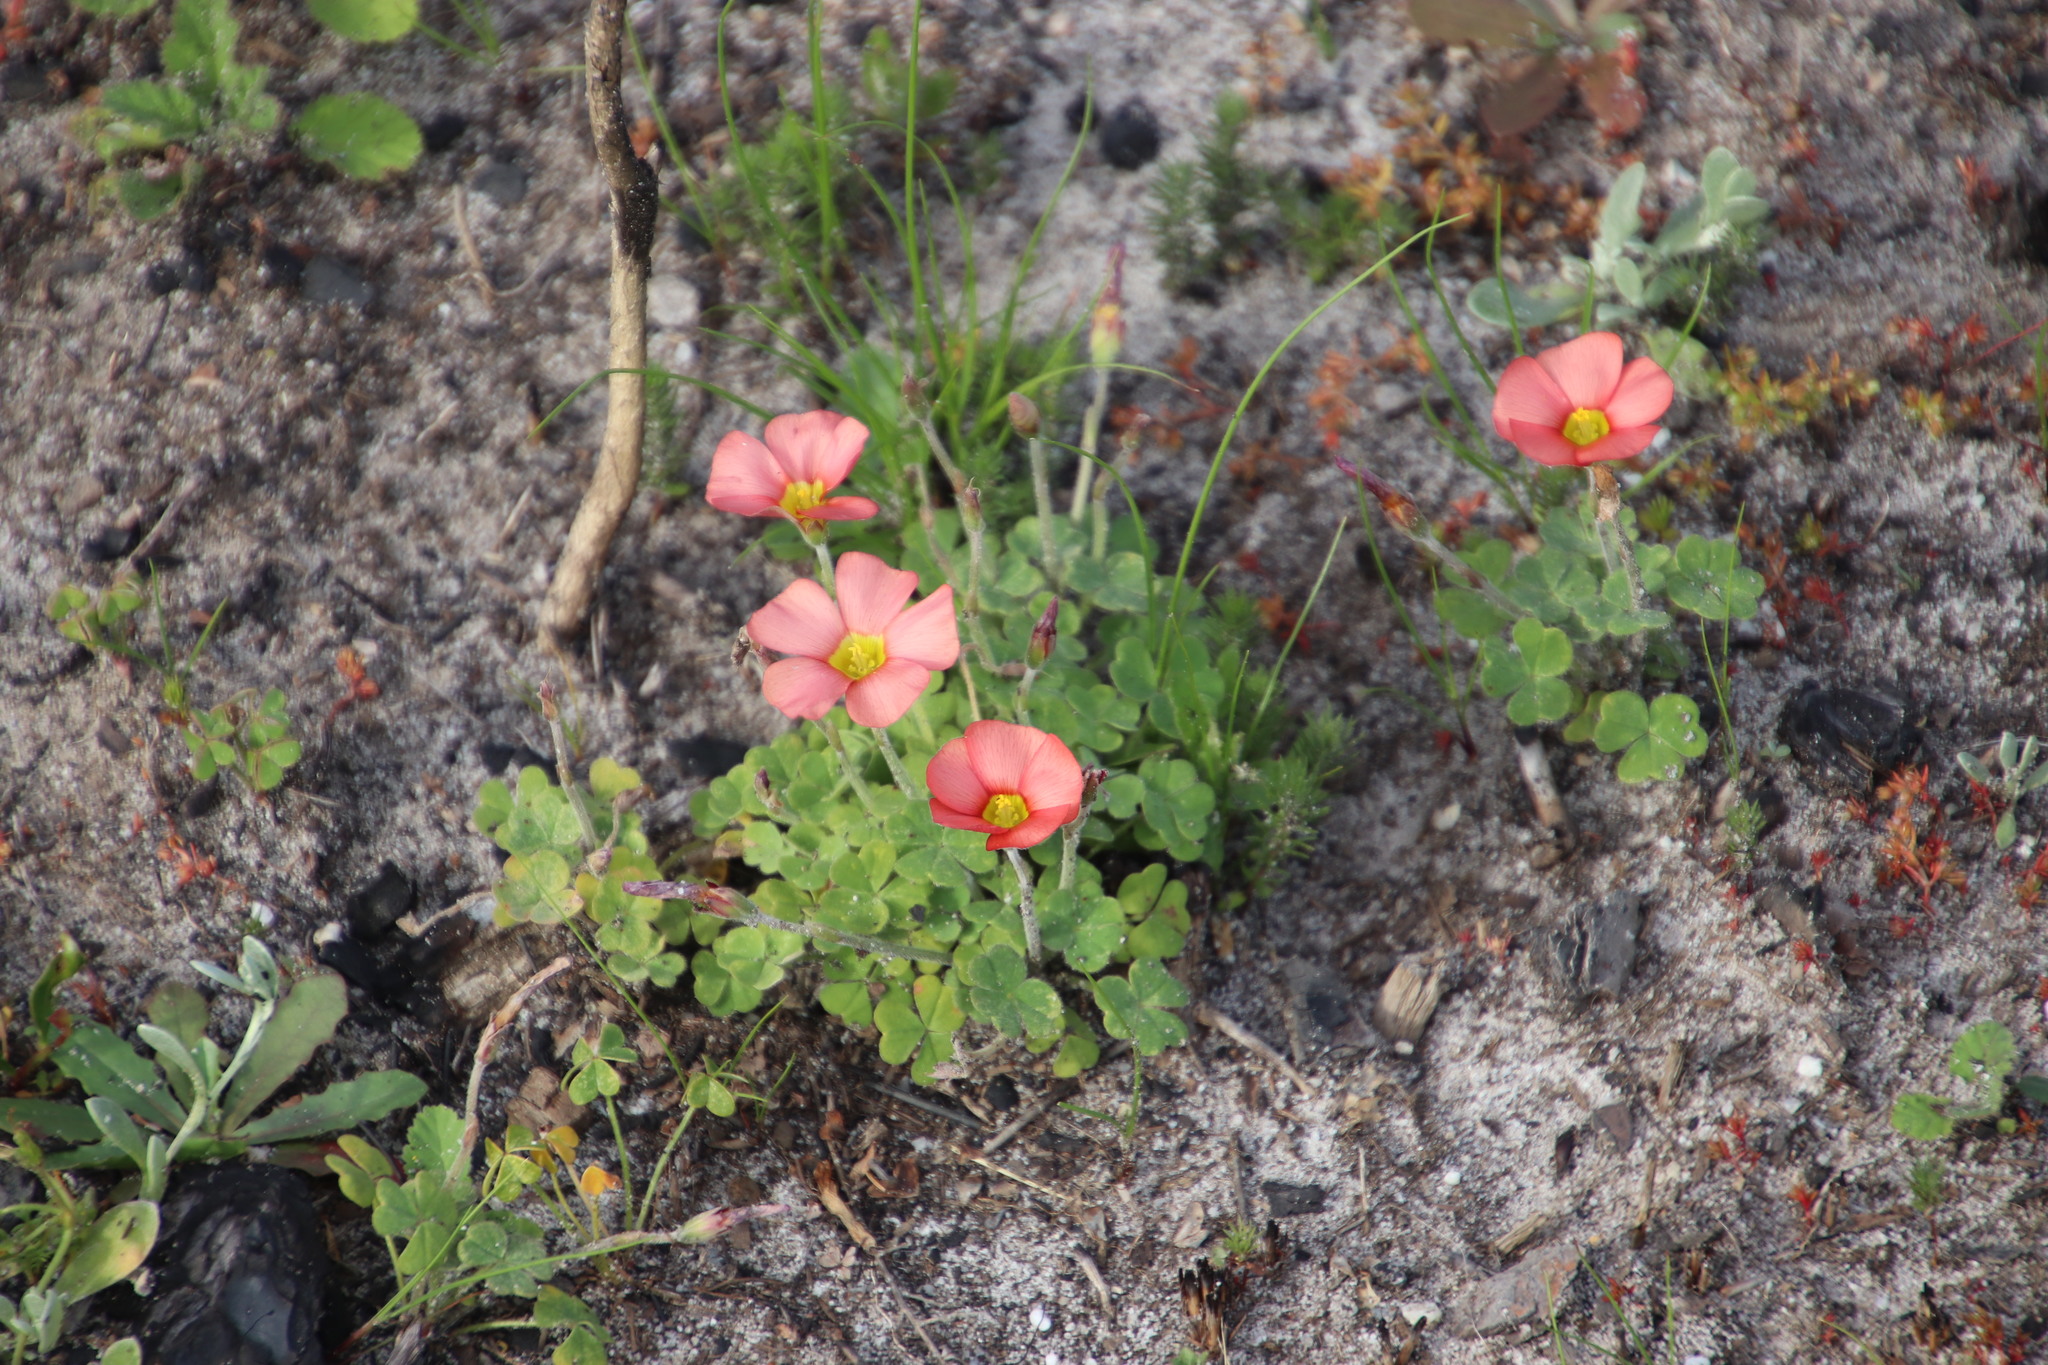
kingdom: Plantae
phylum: Tracheophyta
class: Magnoliopsida
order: Oxalidales
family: Oxalidaceae
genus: Oxalis
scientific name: Oxalis obtusa
